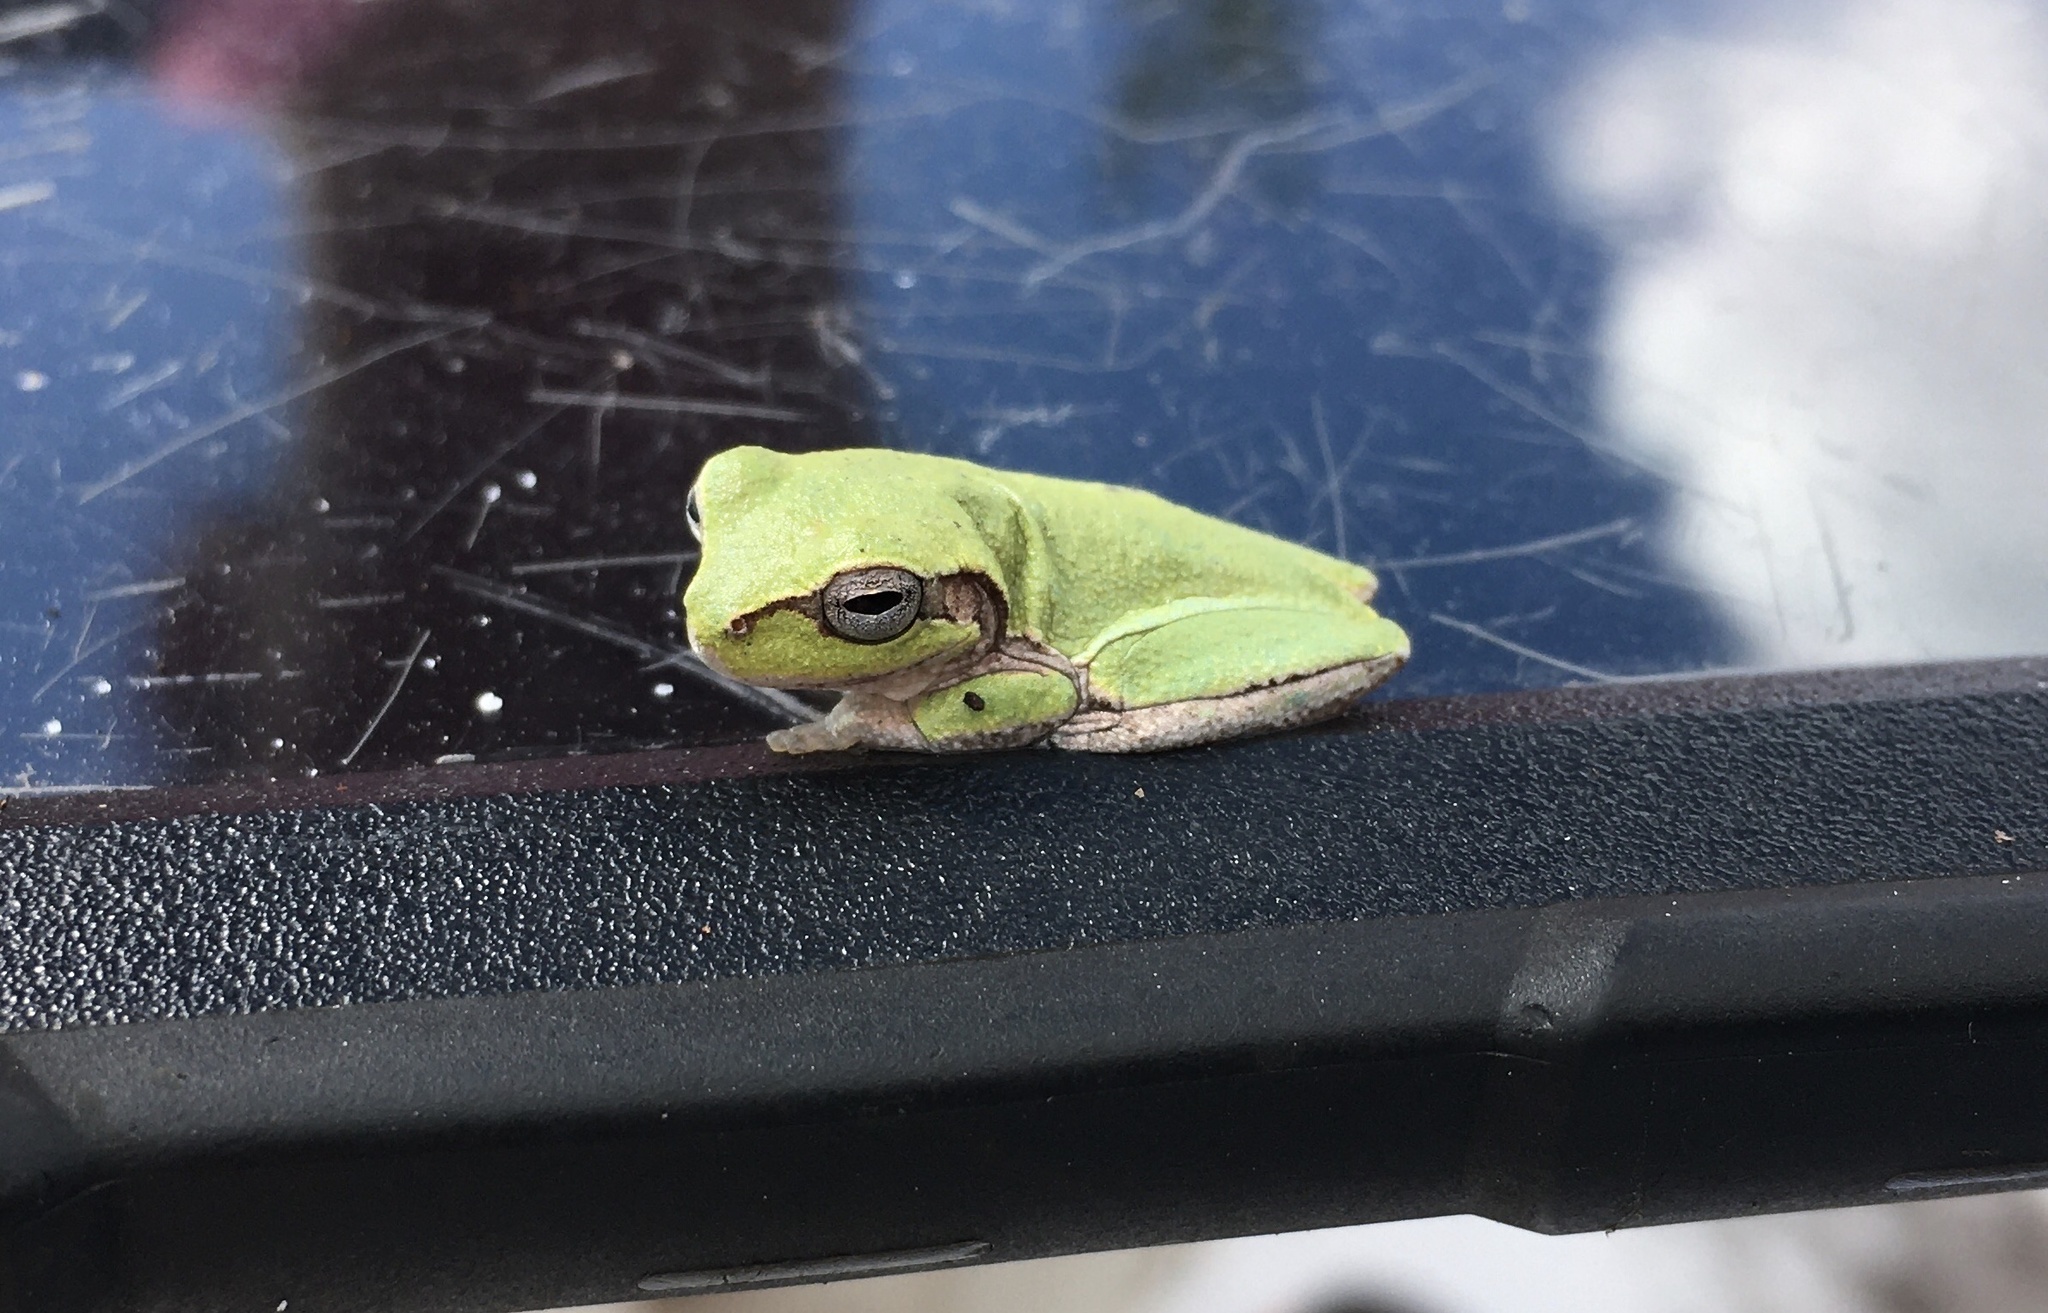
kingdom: Animalia
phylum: Chordata
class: Amphibia
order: Anura
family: Hylidae
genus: Hyla
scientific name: Hyla femoralis
